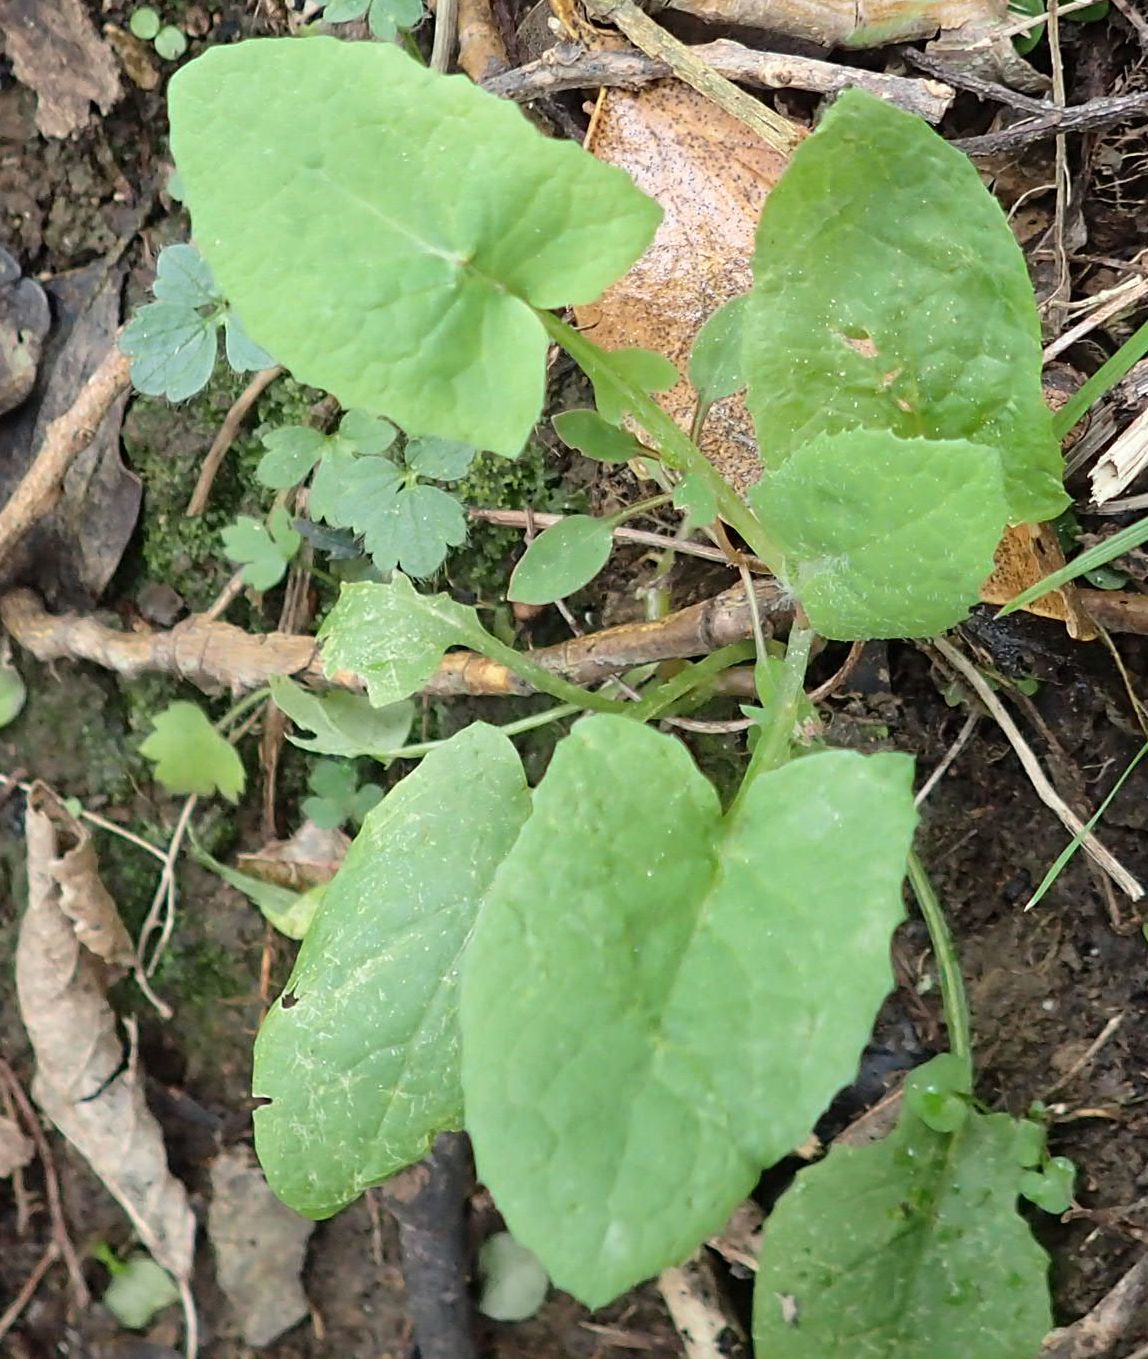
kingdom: Plantae
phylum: Tracheophyta
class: Magnoliopsida
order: Asterales
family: Asteraceae
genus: Sonchus
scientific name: Sonchus oleraceus
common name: Common sowthistle
